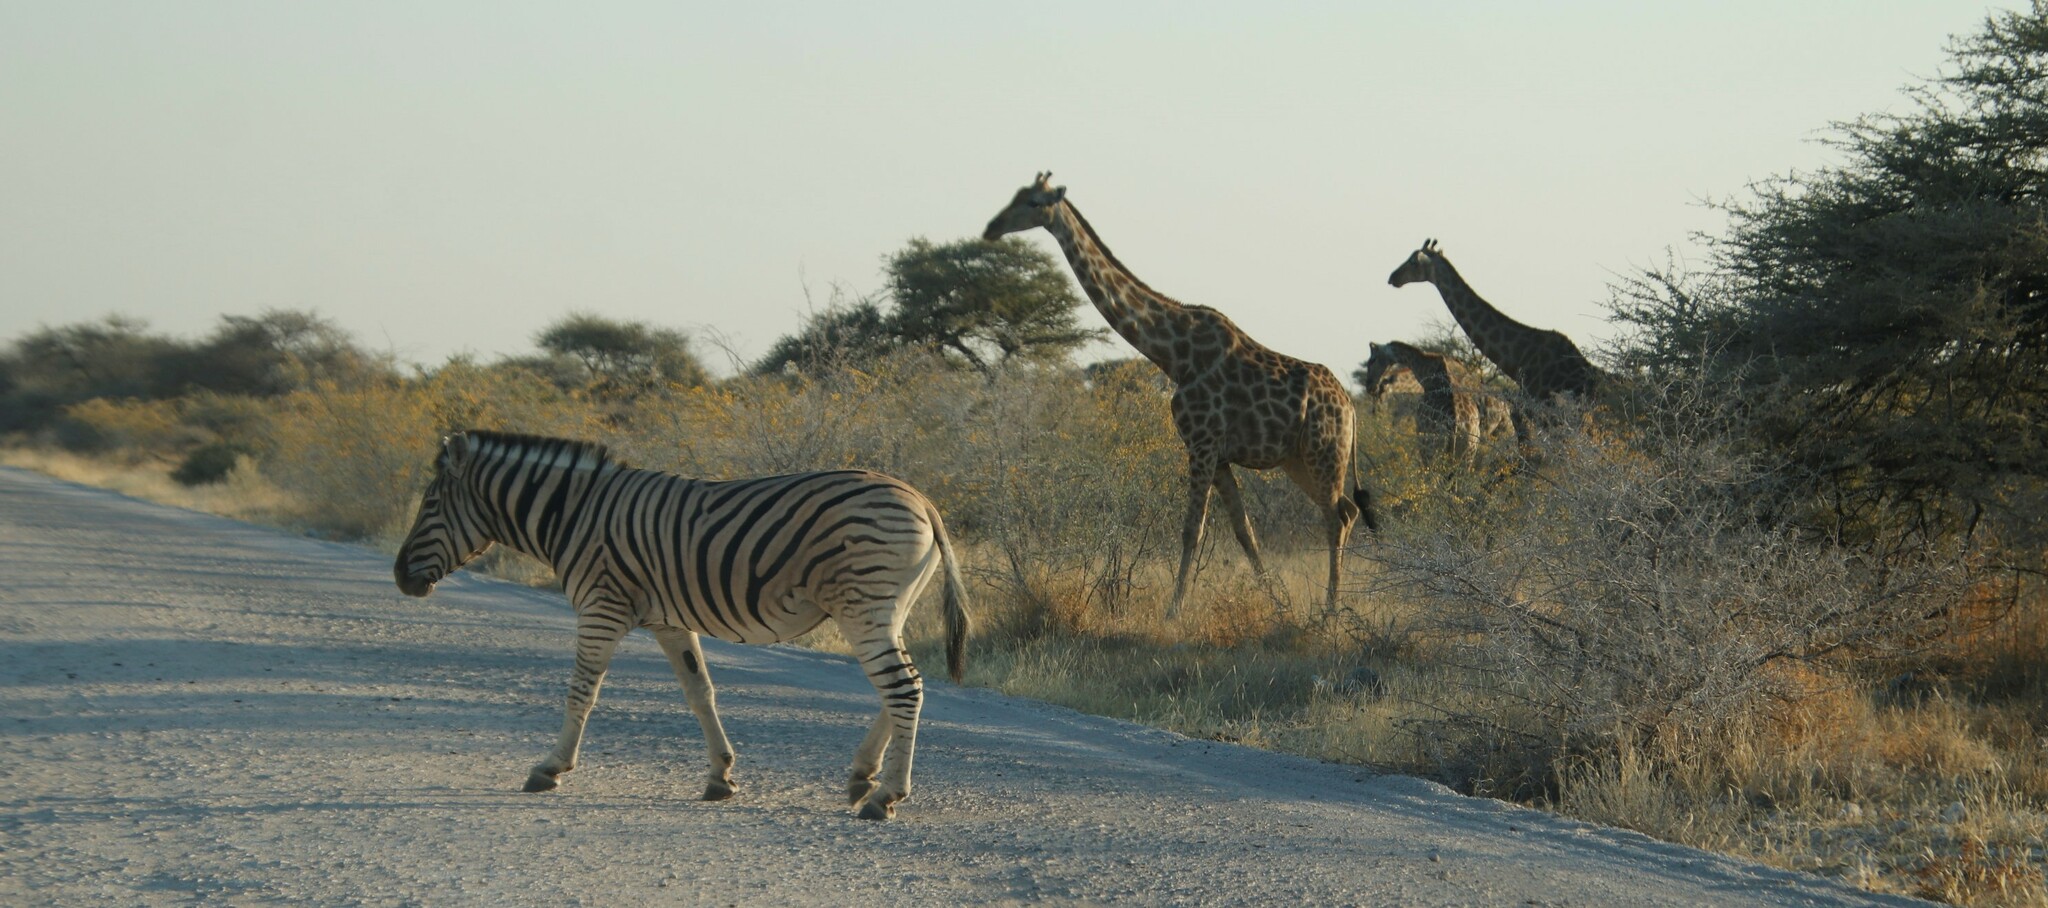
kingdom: Animalia
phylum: Chordata
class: Mammalia
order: Artiodactyla
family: Giraffidae
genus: Giraffa
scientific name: Giraffa giraffa
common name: Southern giraffe
